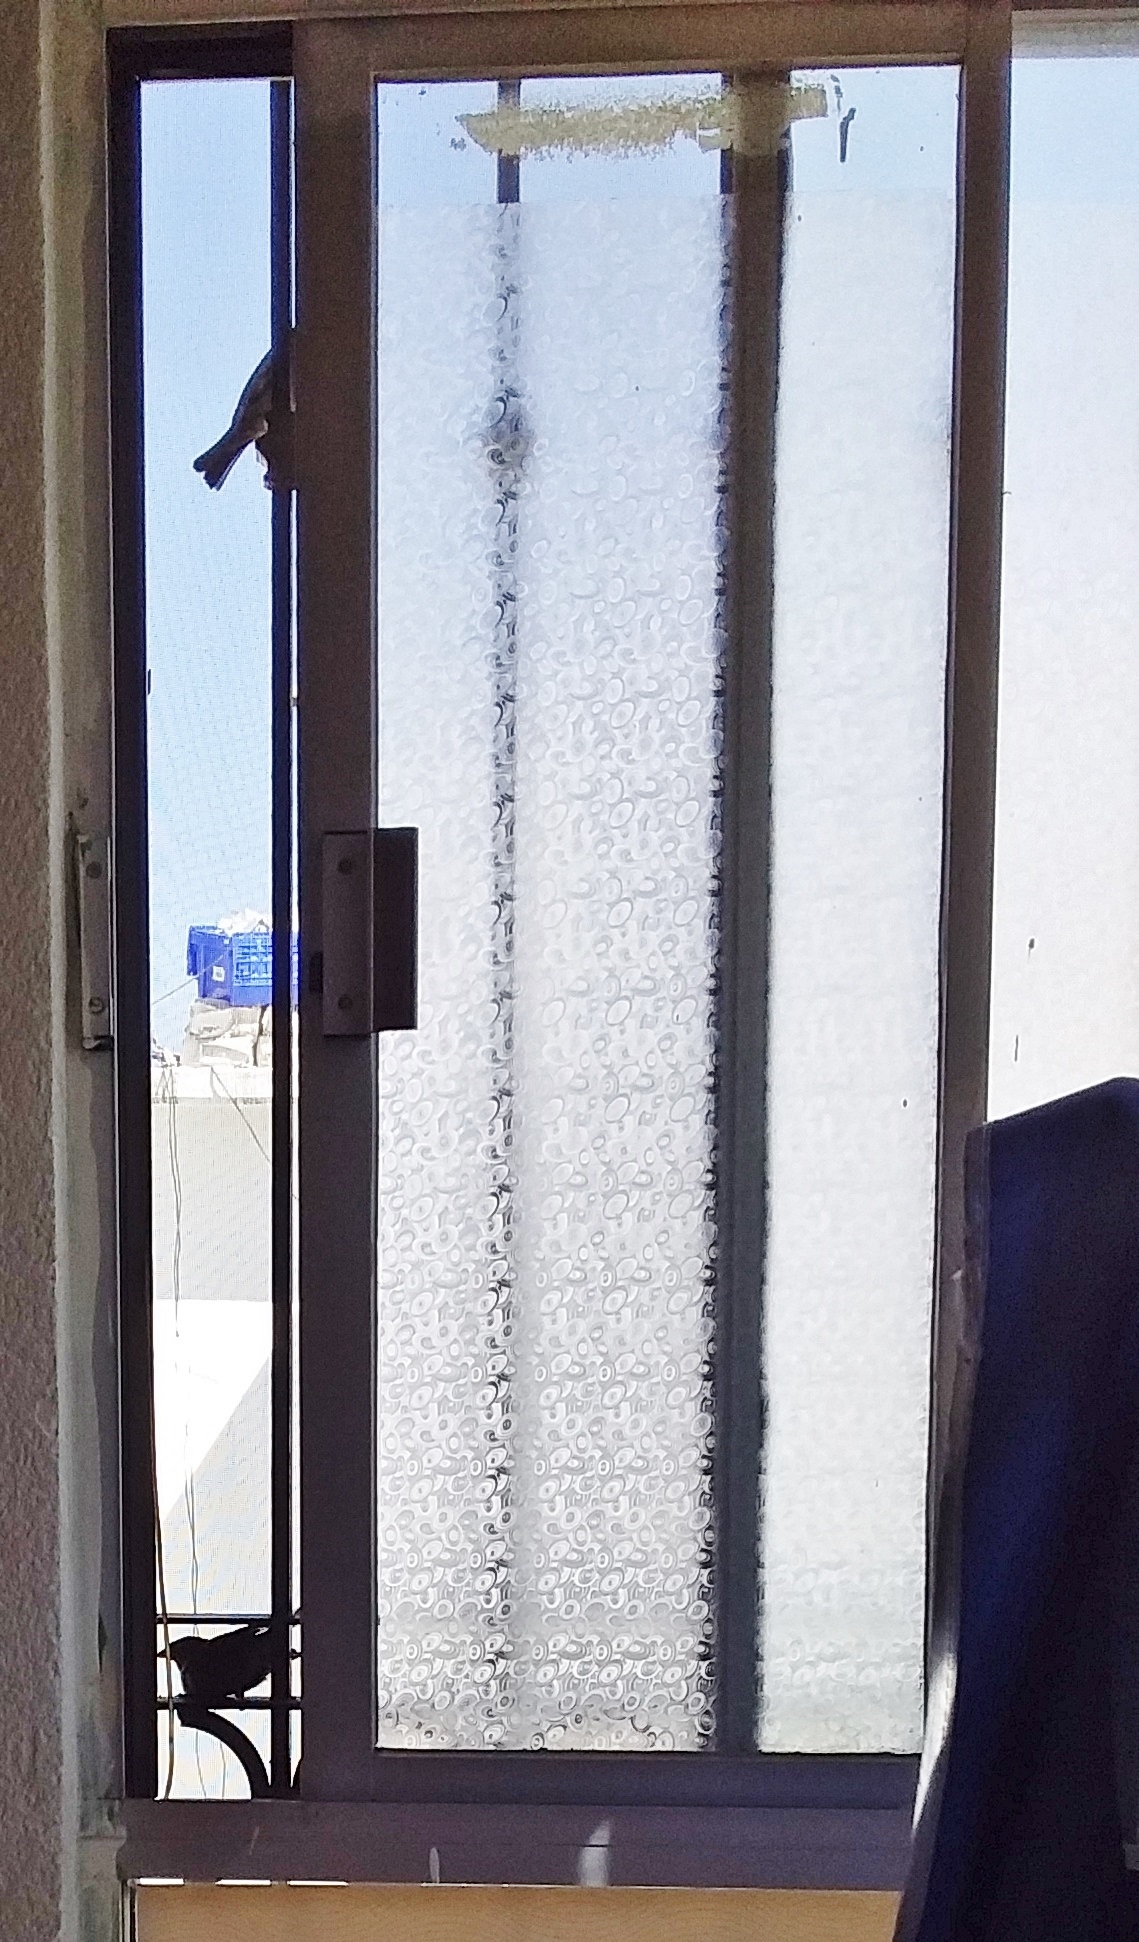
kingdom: Animalia
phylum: Chordata
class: Aves
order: Passeriformes
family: Passeridae
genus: Passer
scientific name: Passer domesticus
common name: House sparrow
